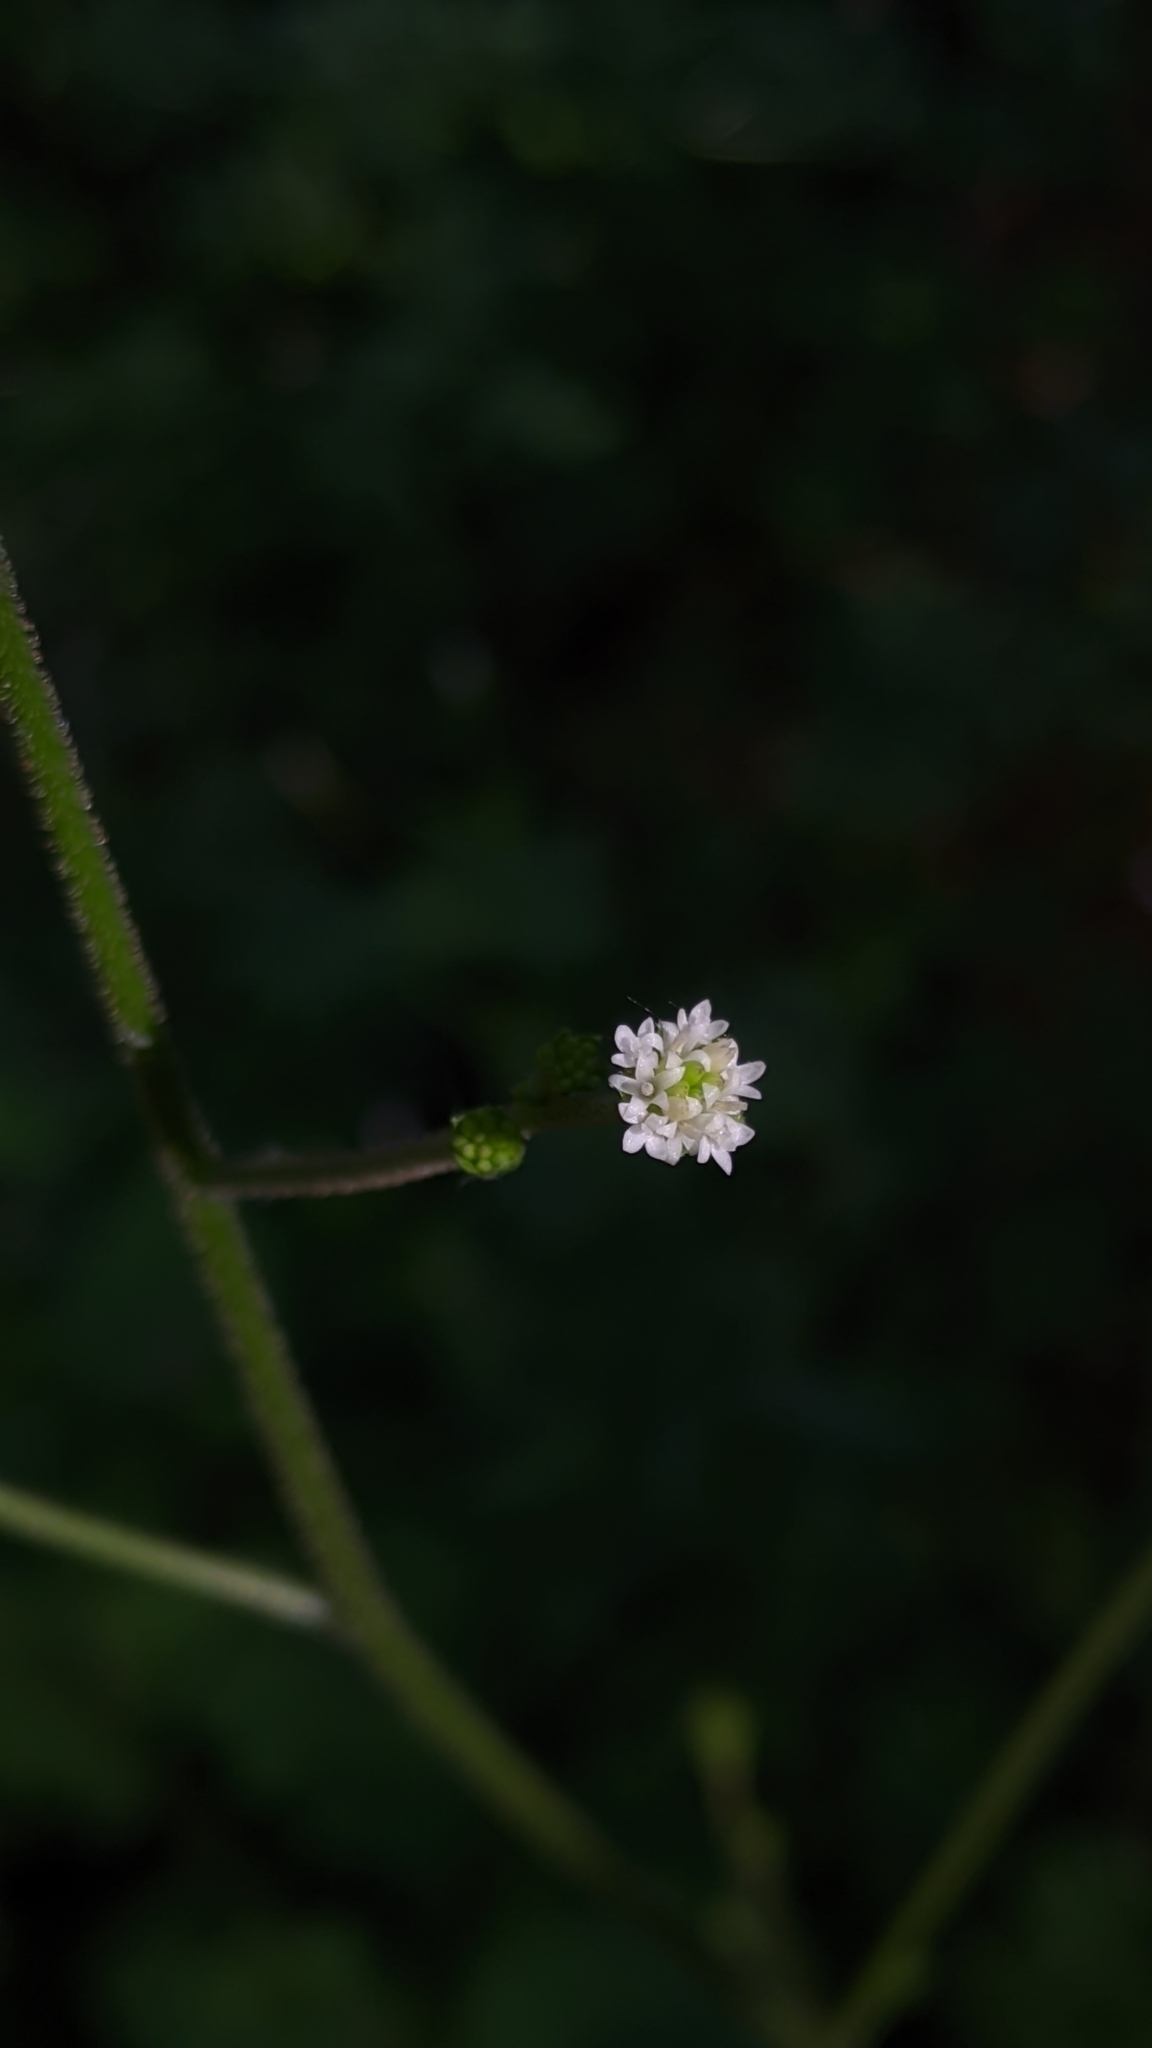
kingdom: Plantae
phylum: Tracheophyta
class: Magnoliopsida
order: Asterales
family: Asteraceae
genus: Adenocaulon
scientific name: Adenocaulon bicolor
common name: Trailplant
